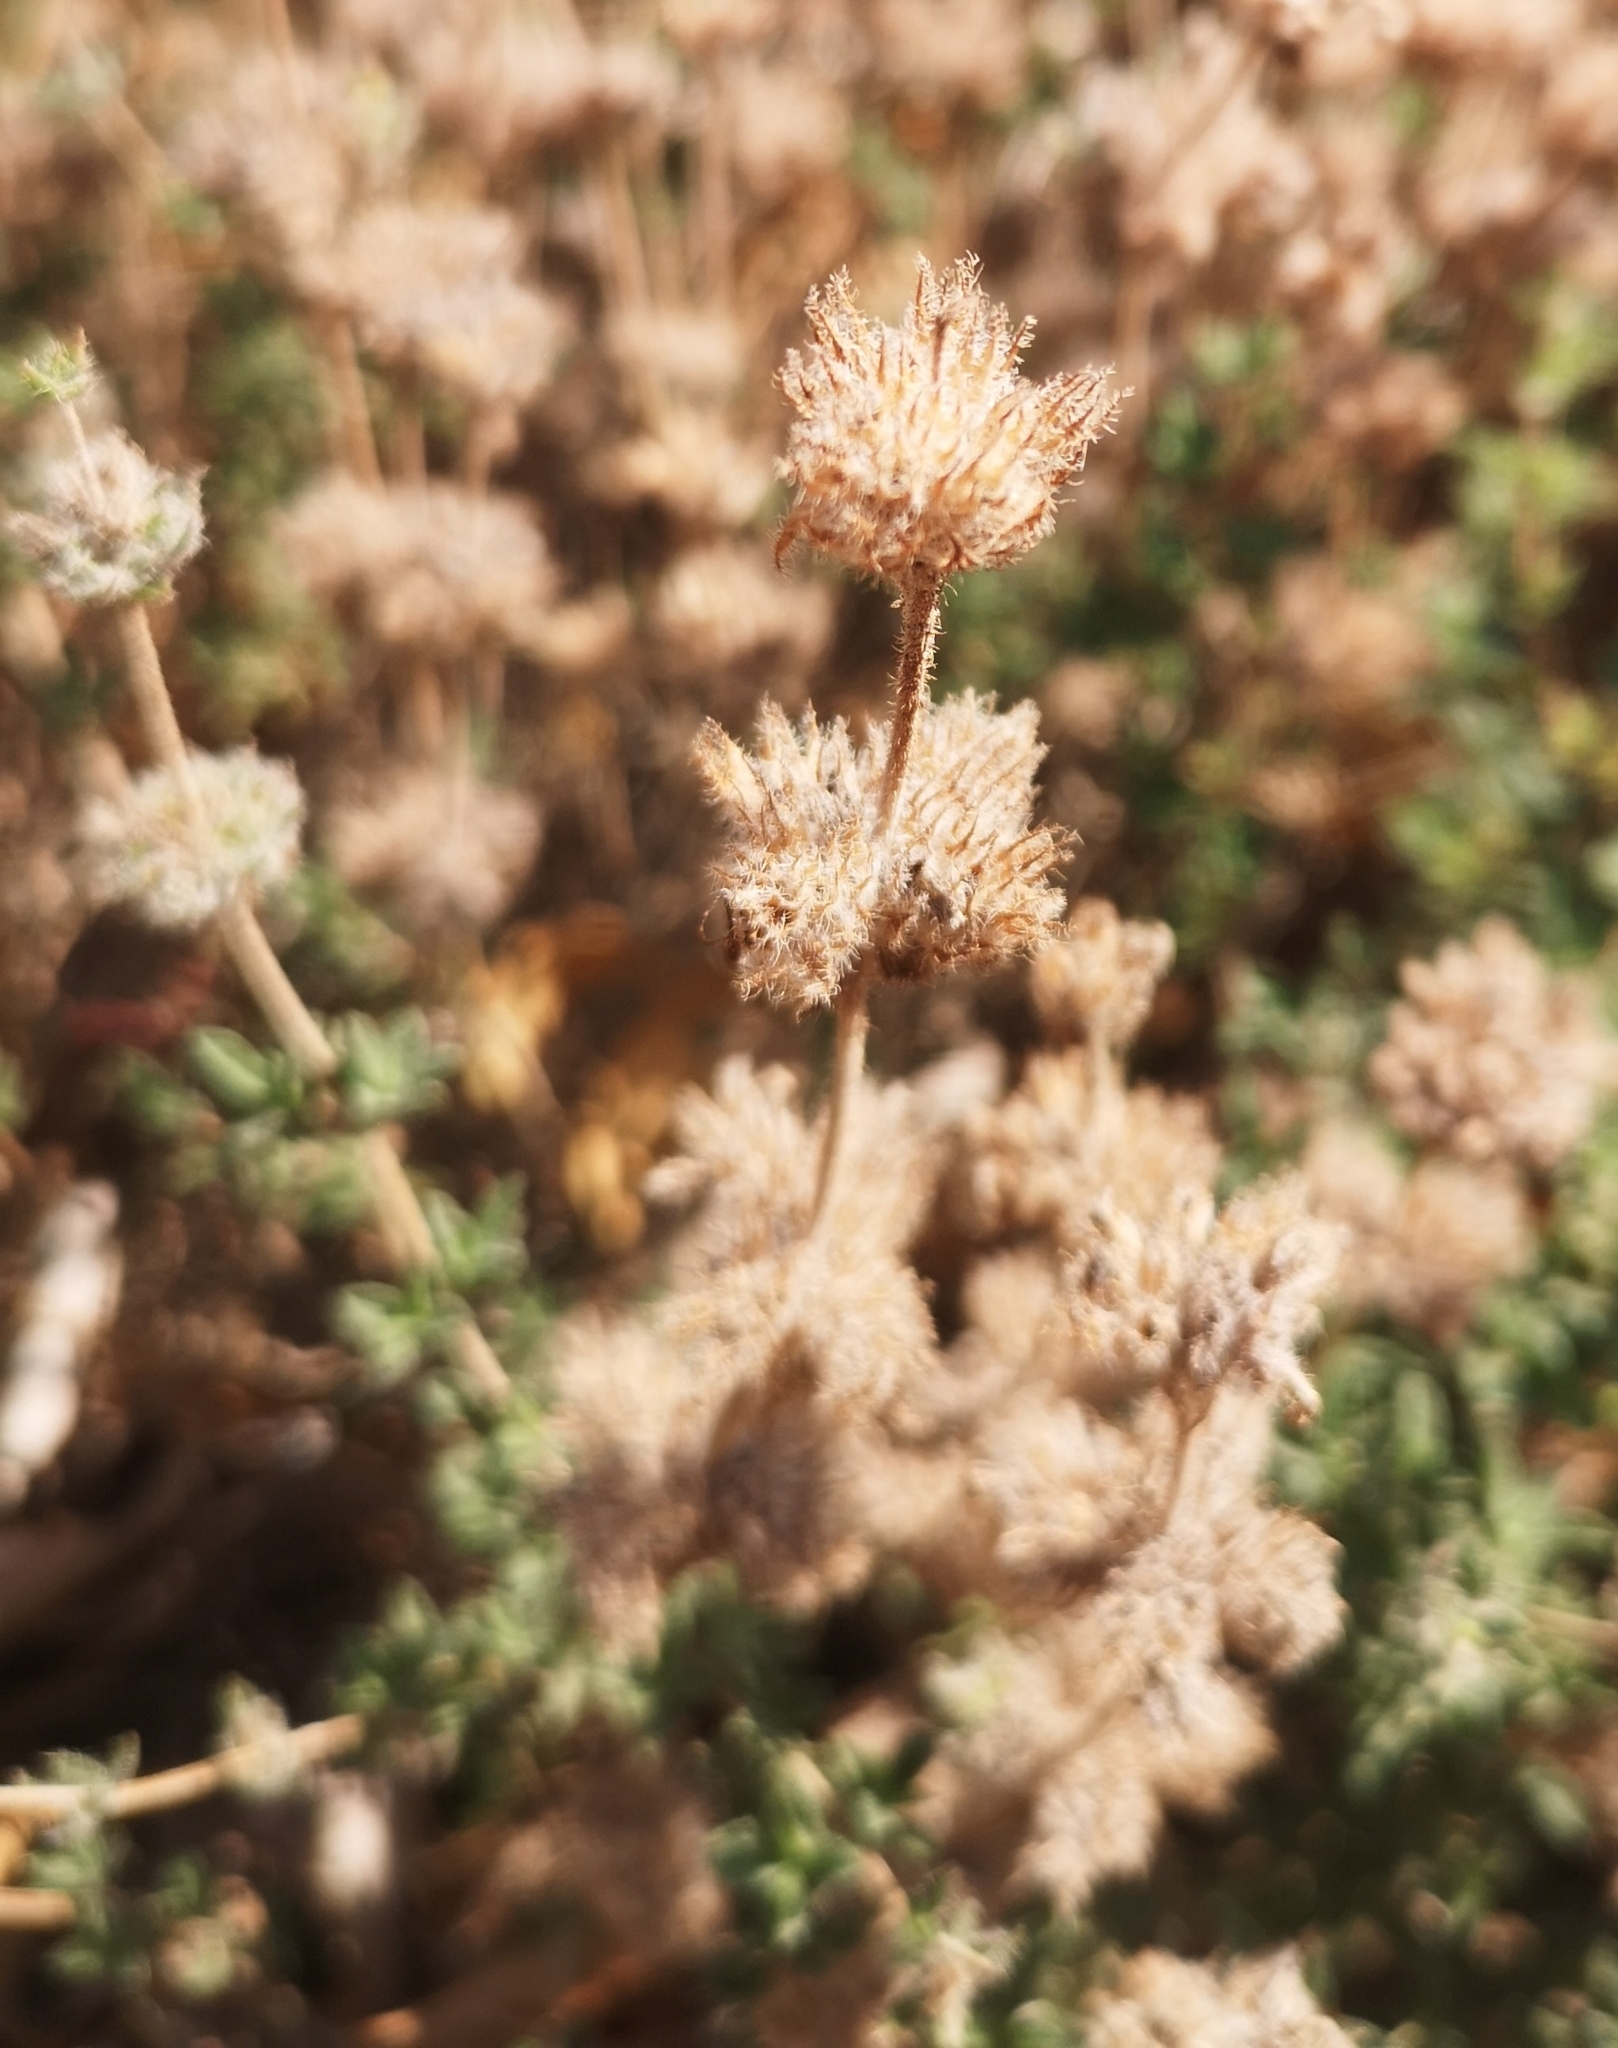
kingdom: Plantae
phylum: Tracheophyta
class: Magnoliopsida
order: Lamiales
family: Lamiaceae
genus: Satureja
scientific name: Satureja thymbra
